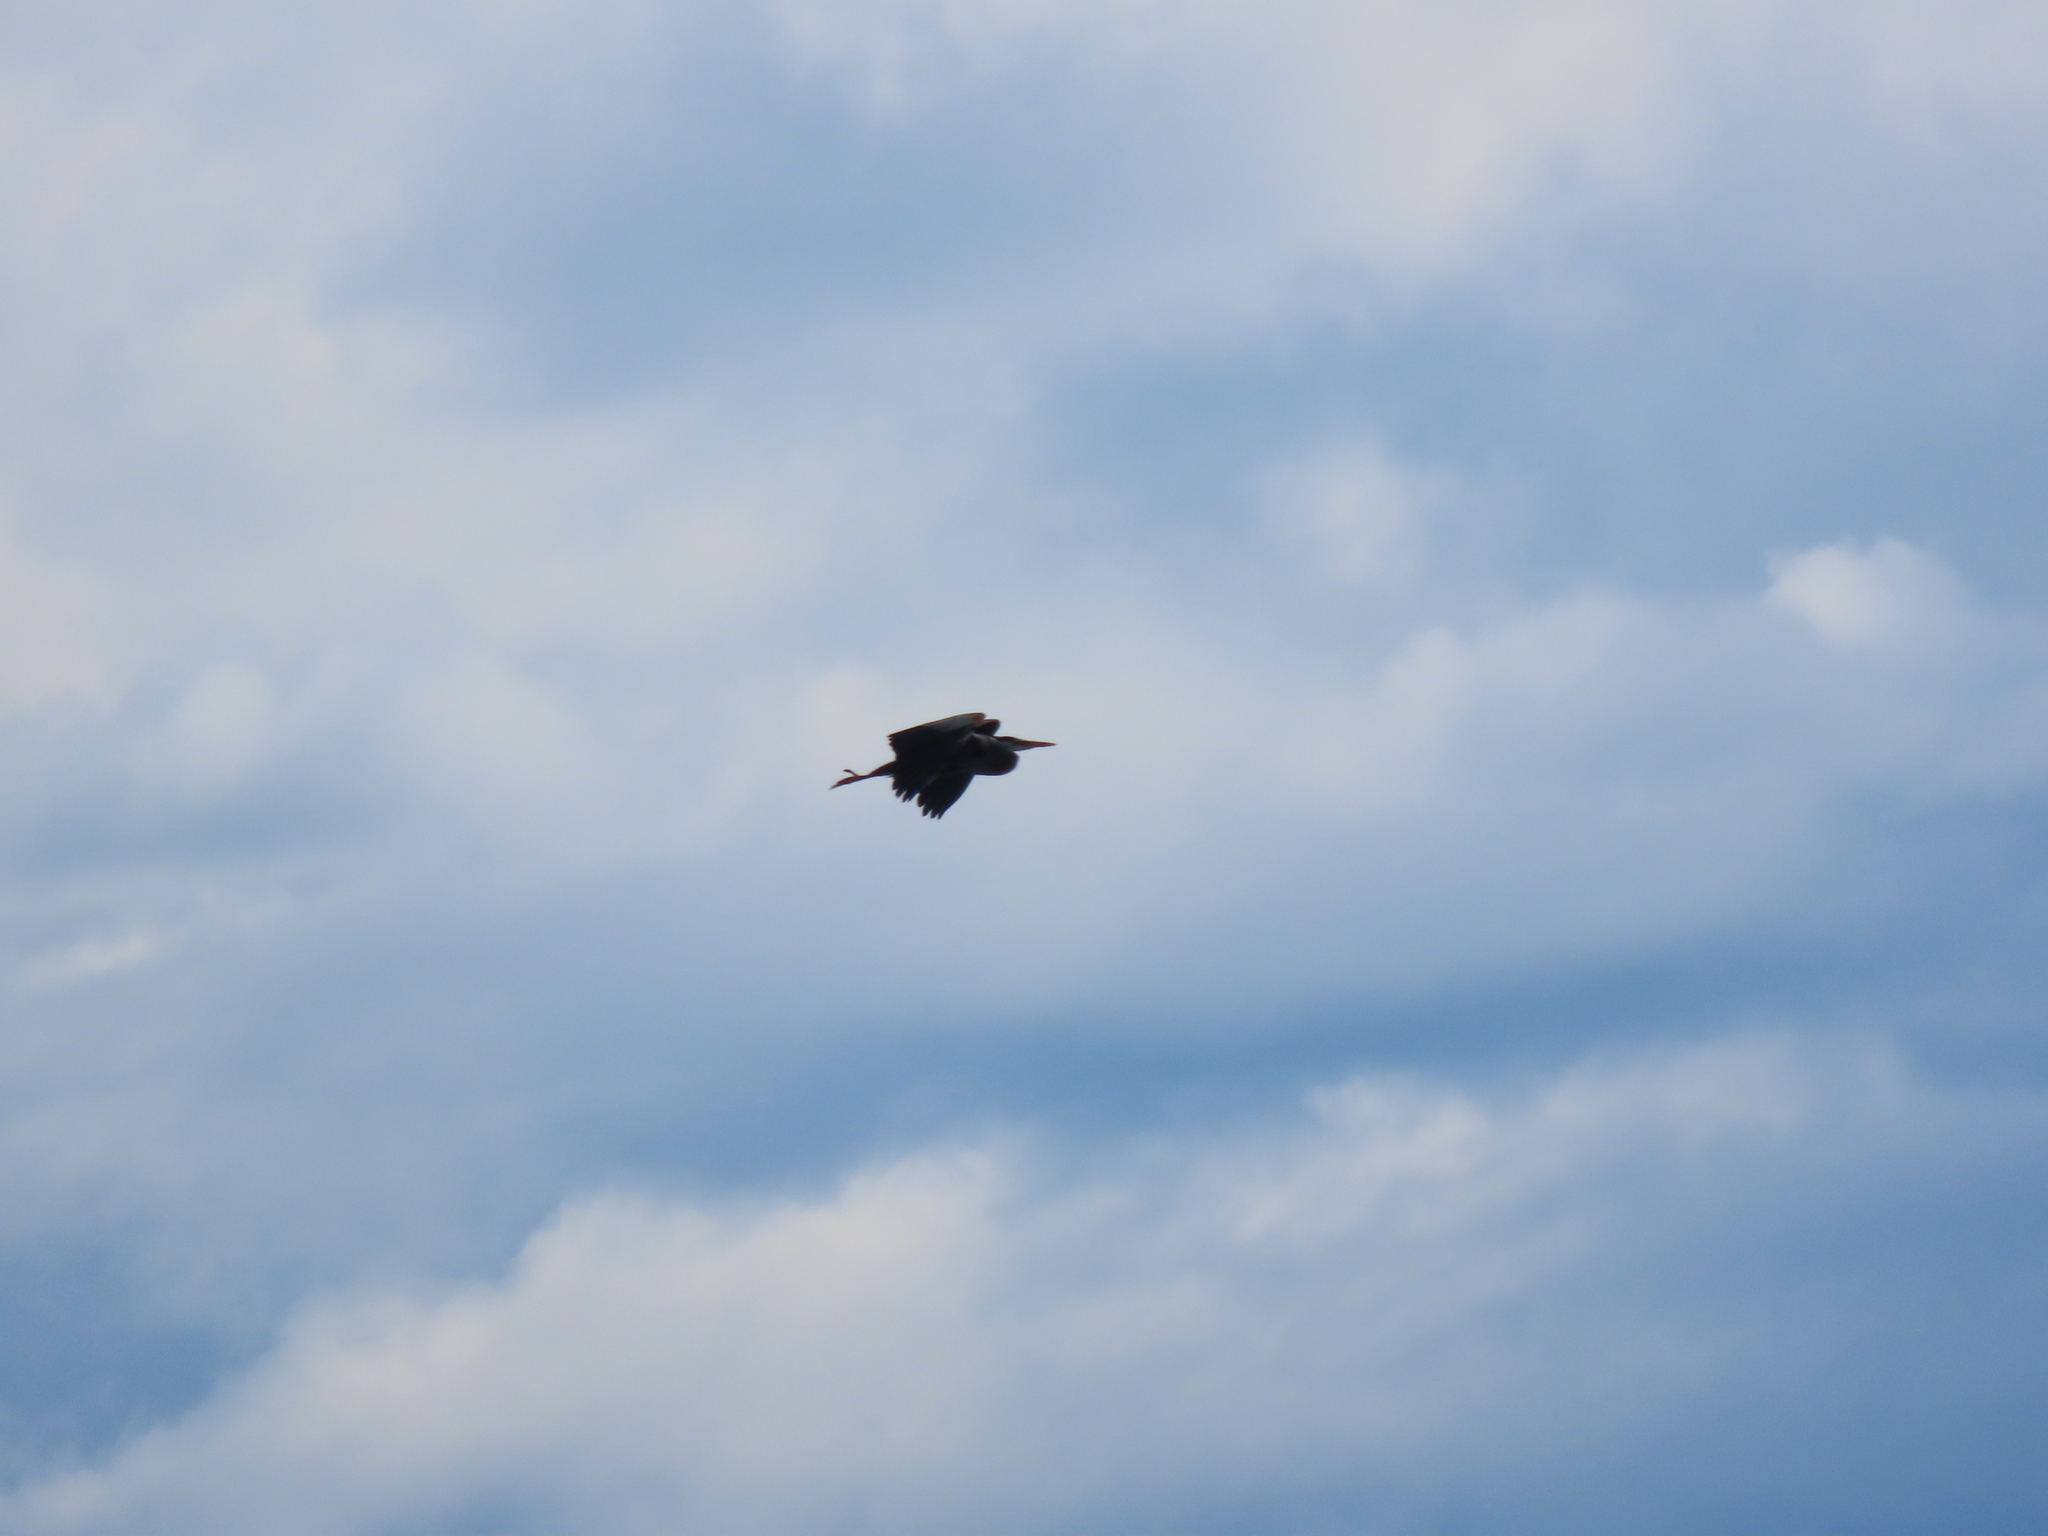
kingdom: Animalia
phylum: Chordata
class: Aves
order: Pelecaniformes
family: Ardeidae
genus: Ardea
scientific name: Ardea herodias
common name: Great blue heron
